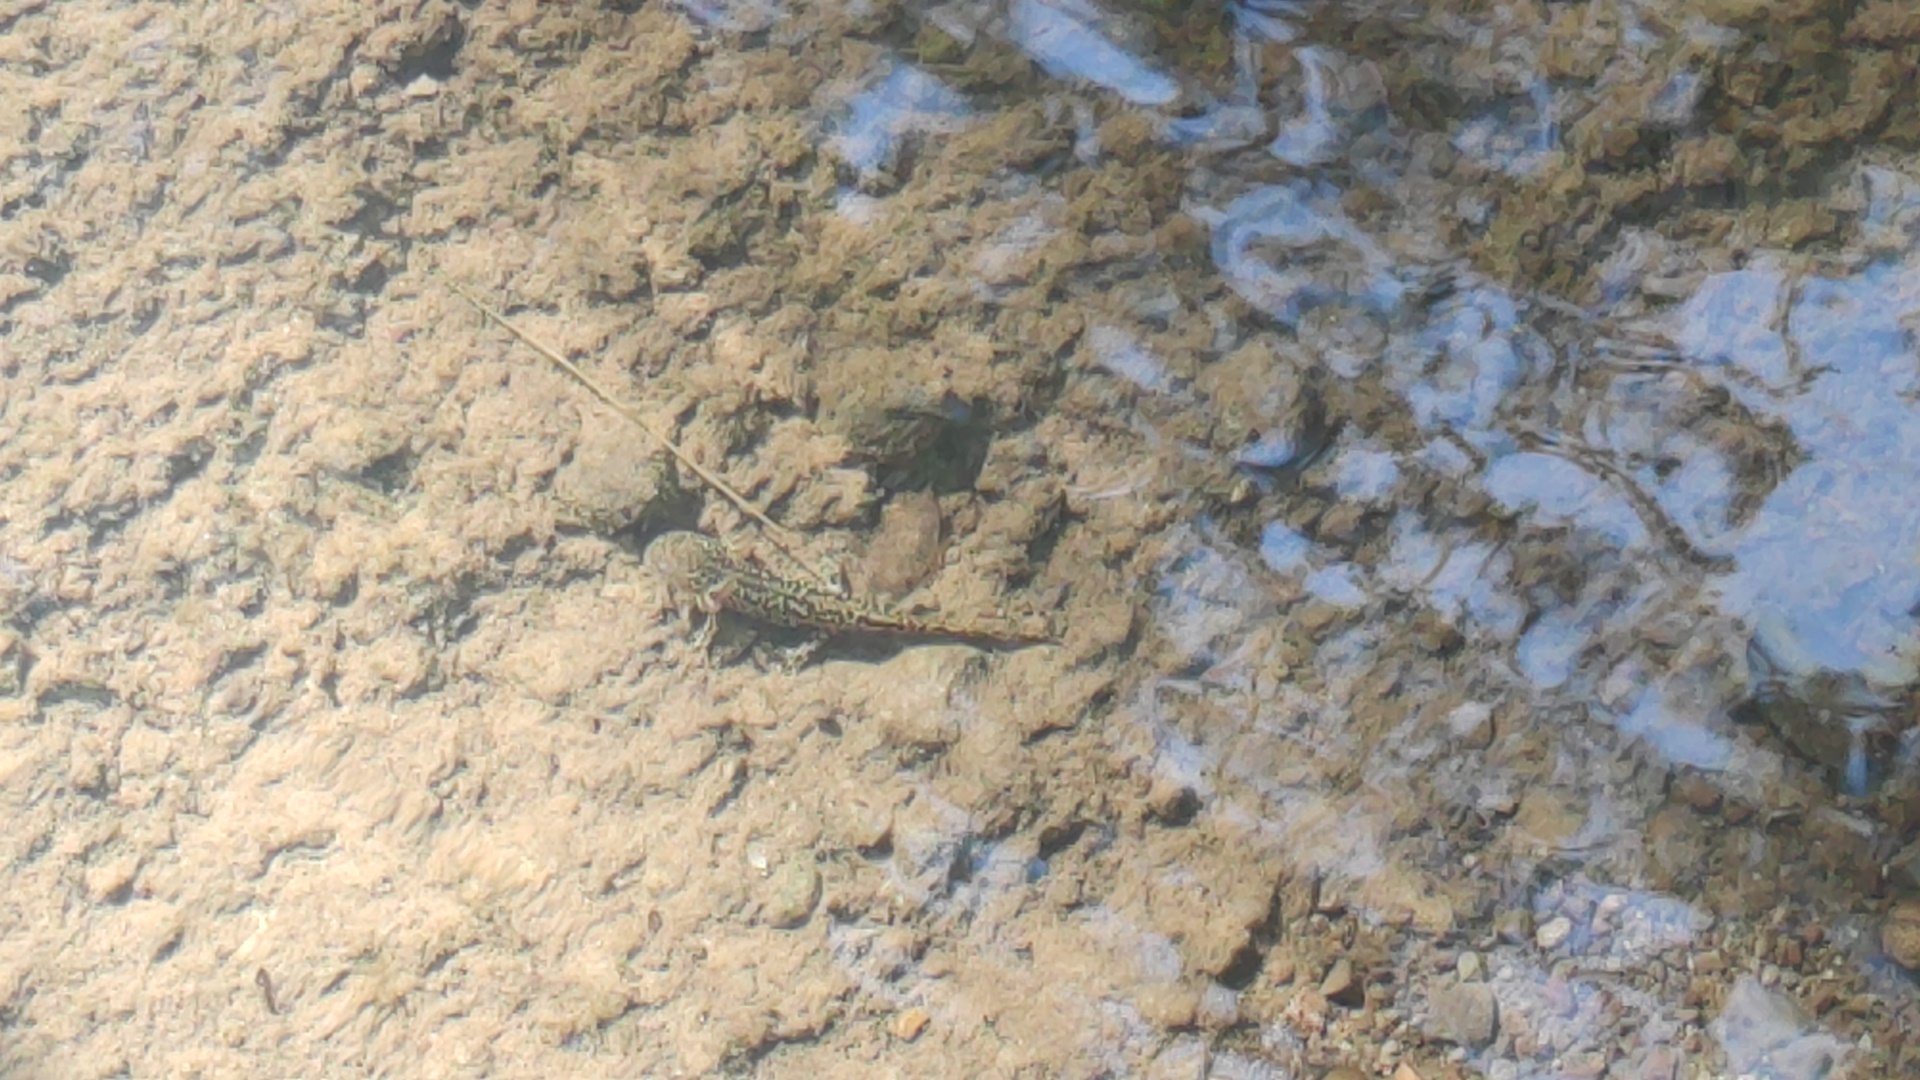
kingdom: Animalia
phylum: Chordata
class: Amphibia
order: Caudata
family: Ambystomatidae
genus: Ambystoma
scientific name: Ambystoma rosaceum
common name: Tarahumara salamander
